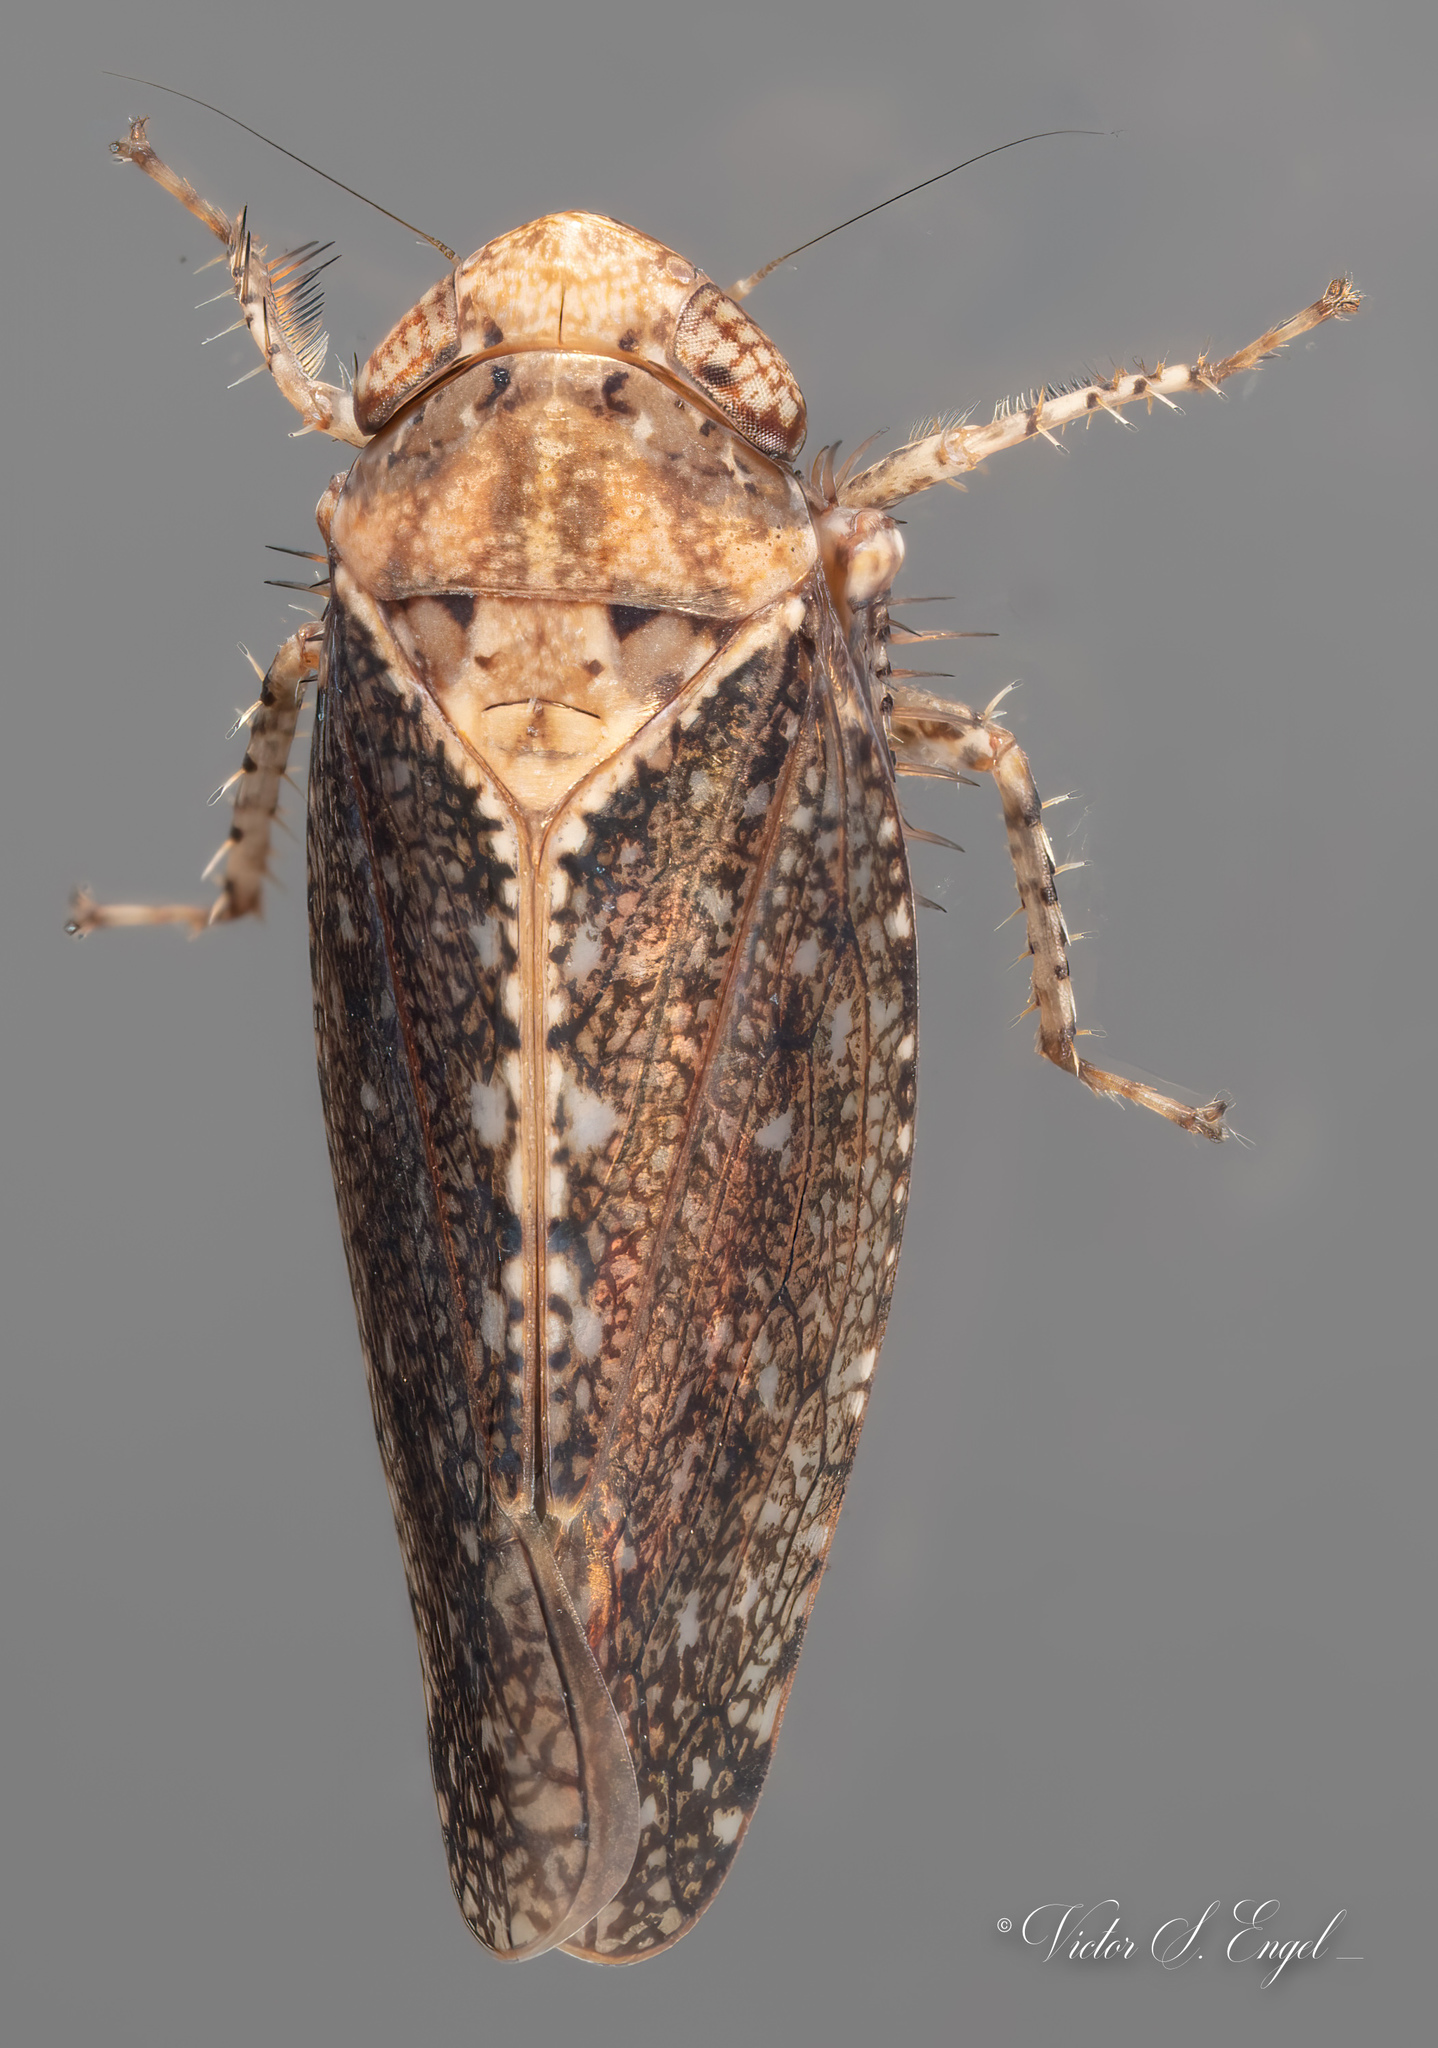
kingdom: Animalia
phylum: Arthropoda
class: Insecta
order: Hemiptera
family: Cicadellidae
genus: Excultanus
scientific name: Excultanus excultus
